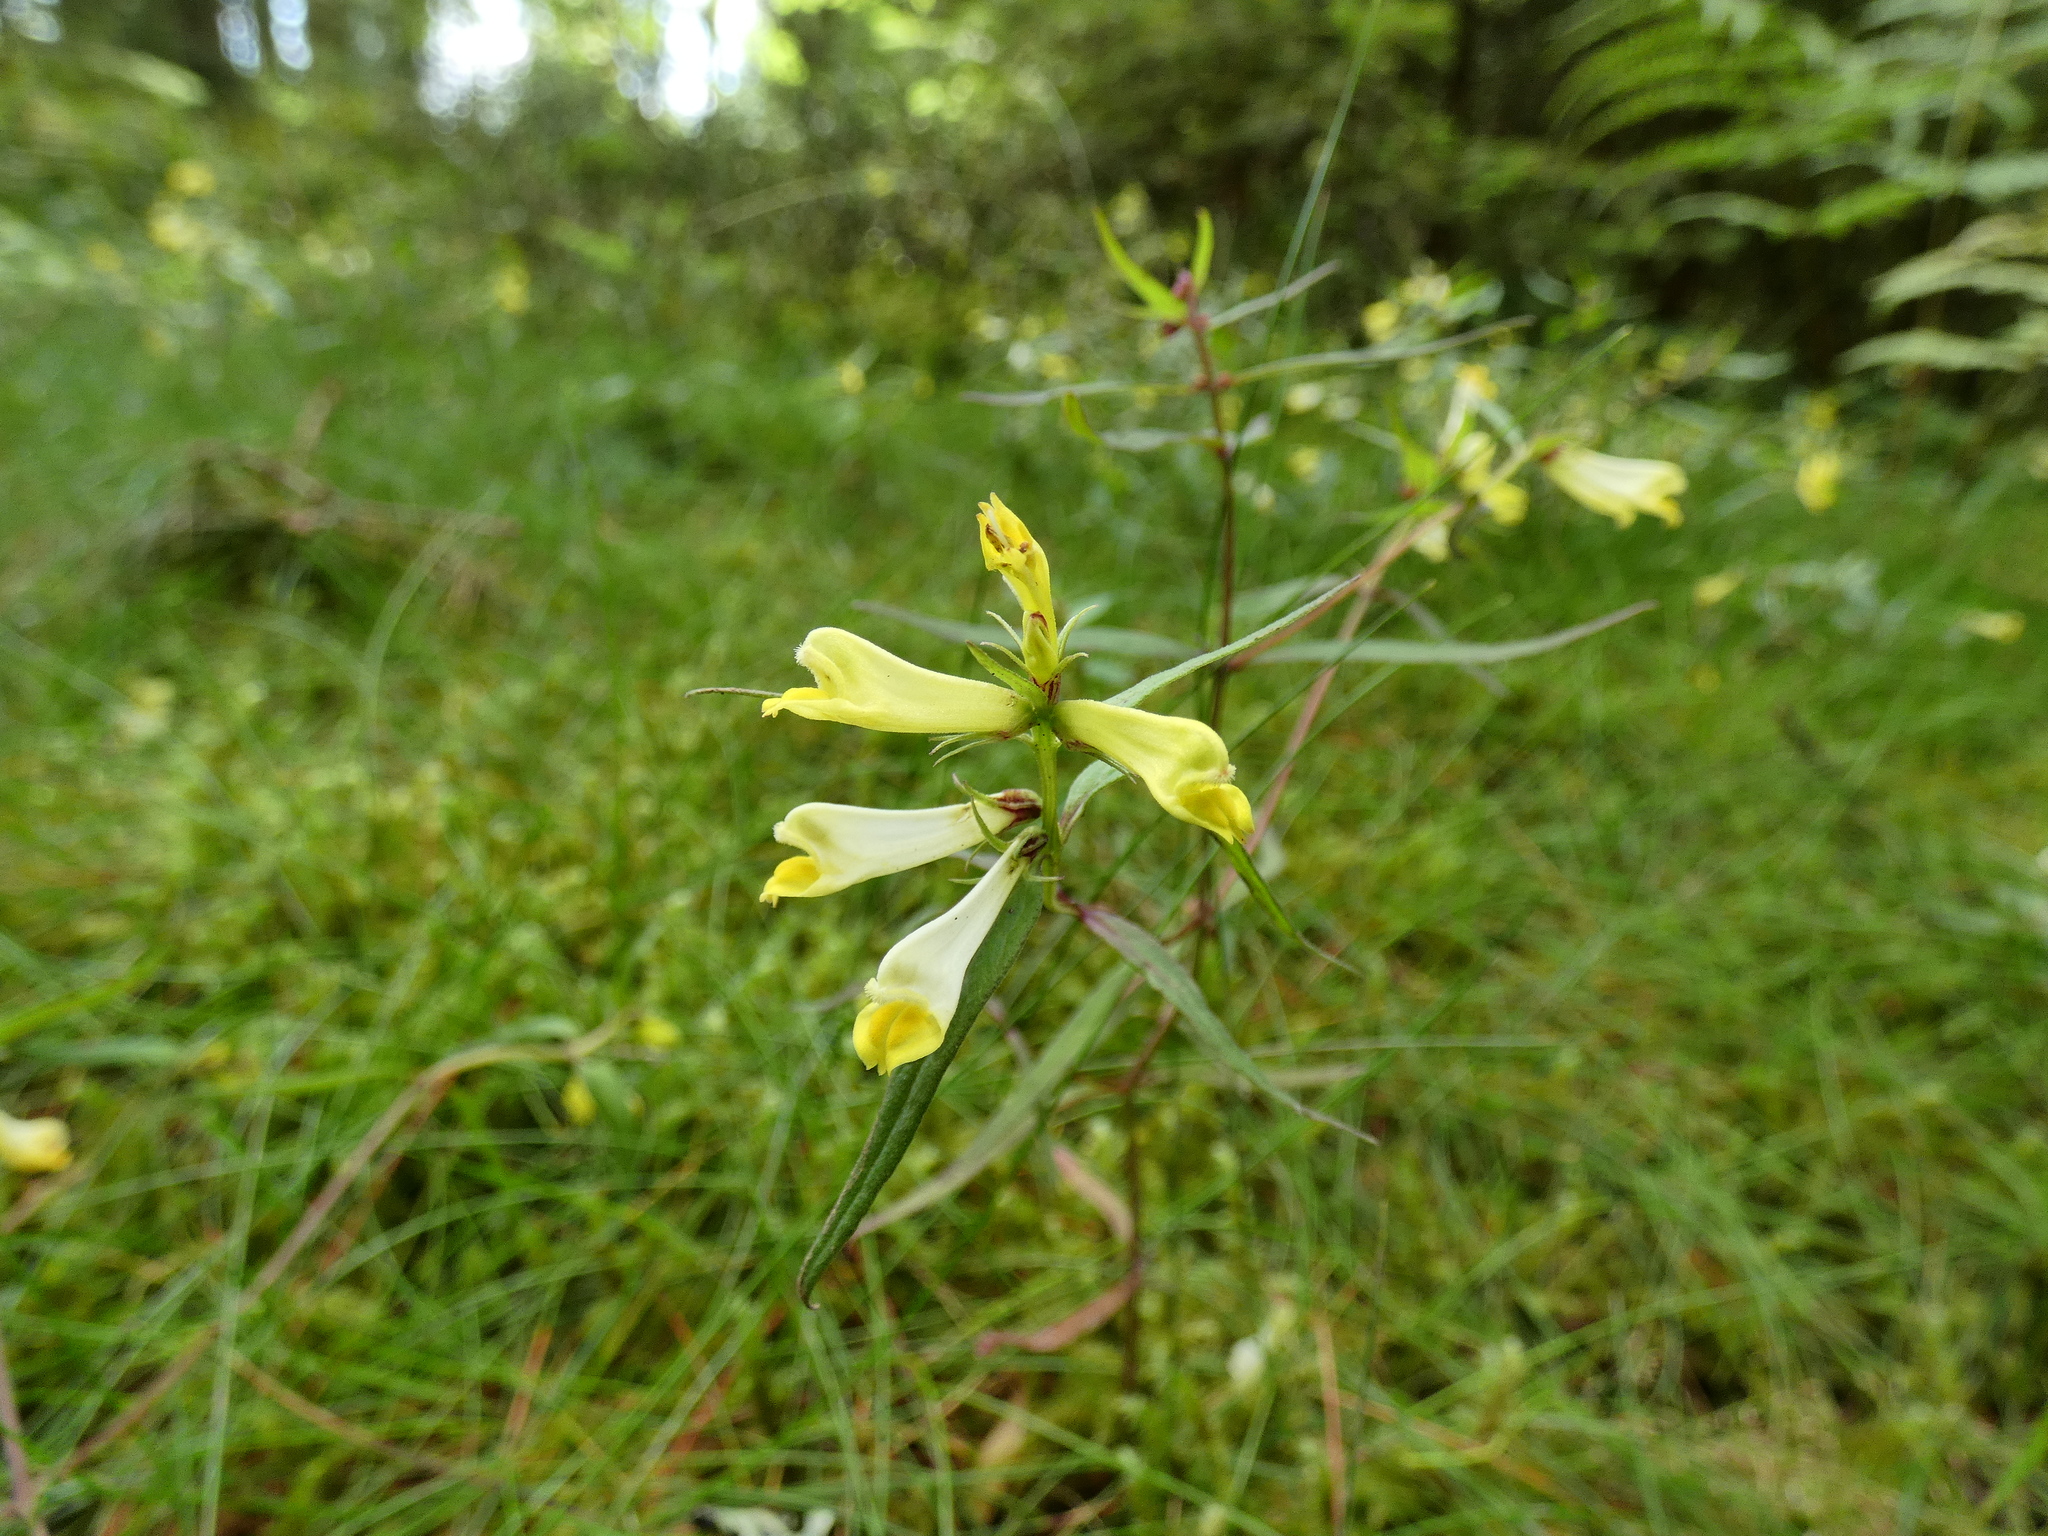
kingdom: Plantae
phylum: Tracheophyta
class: Magnoliopsida
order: Lamiales
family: Orobanchaceae
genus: Melampyrum
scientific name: Melampyrum pratense
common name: Common cow-wheat
